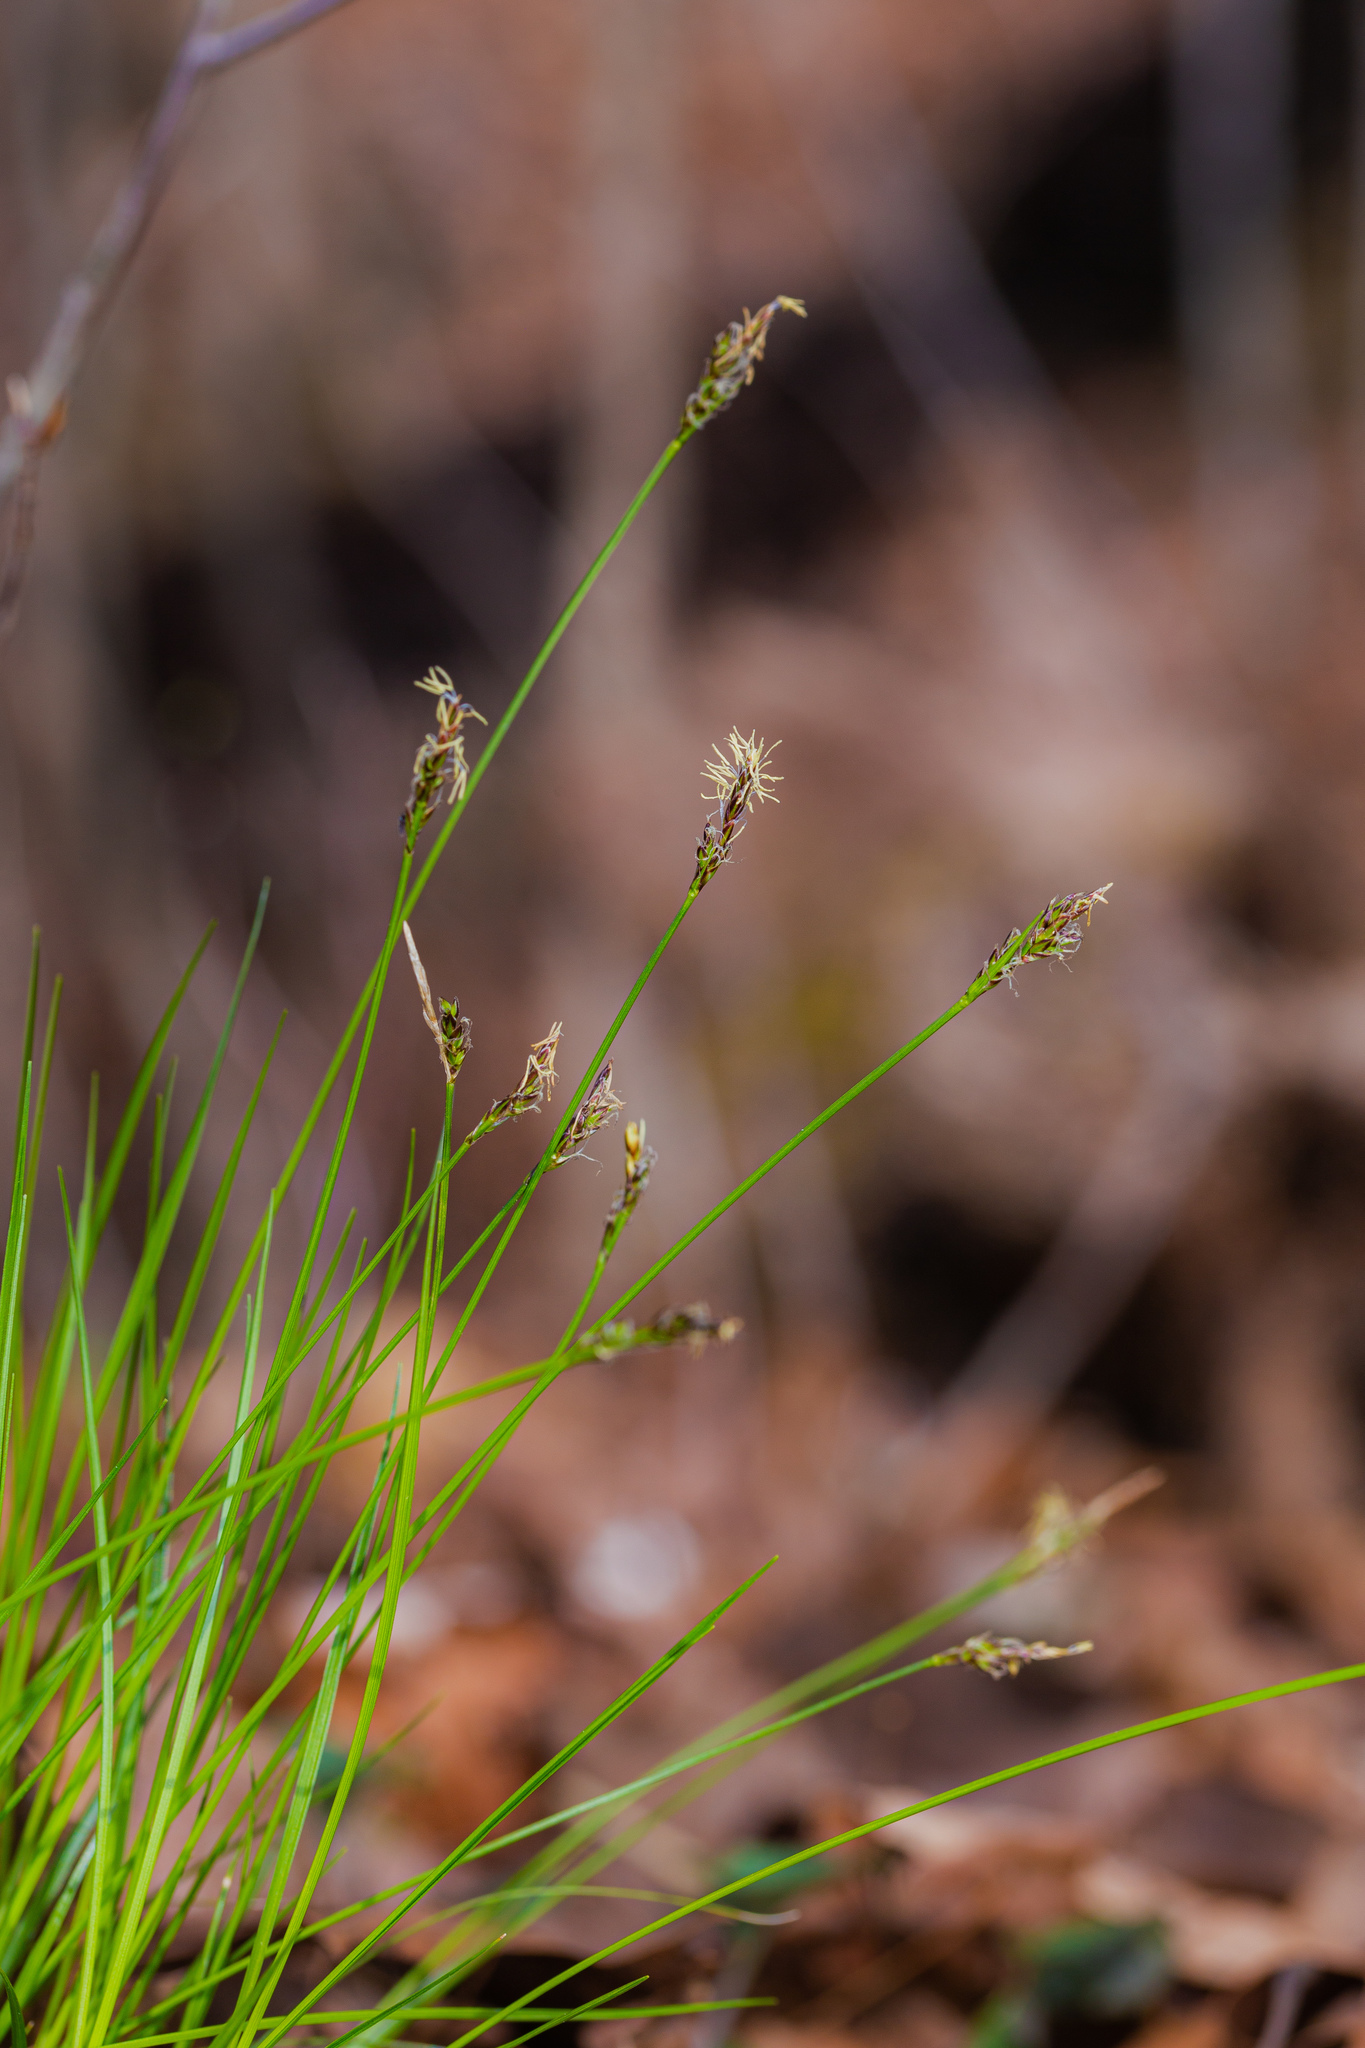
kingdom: Plantae
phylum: Tracheophyta
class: Liliopsida
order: Poales
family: Cyperaceae
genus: Carex
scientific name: Carex albicans
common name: Bellow-beaked sedge
